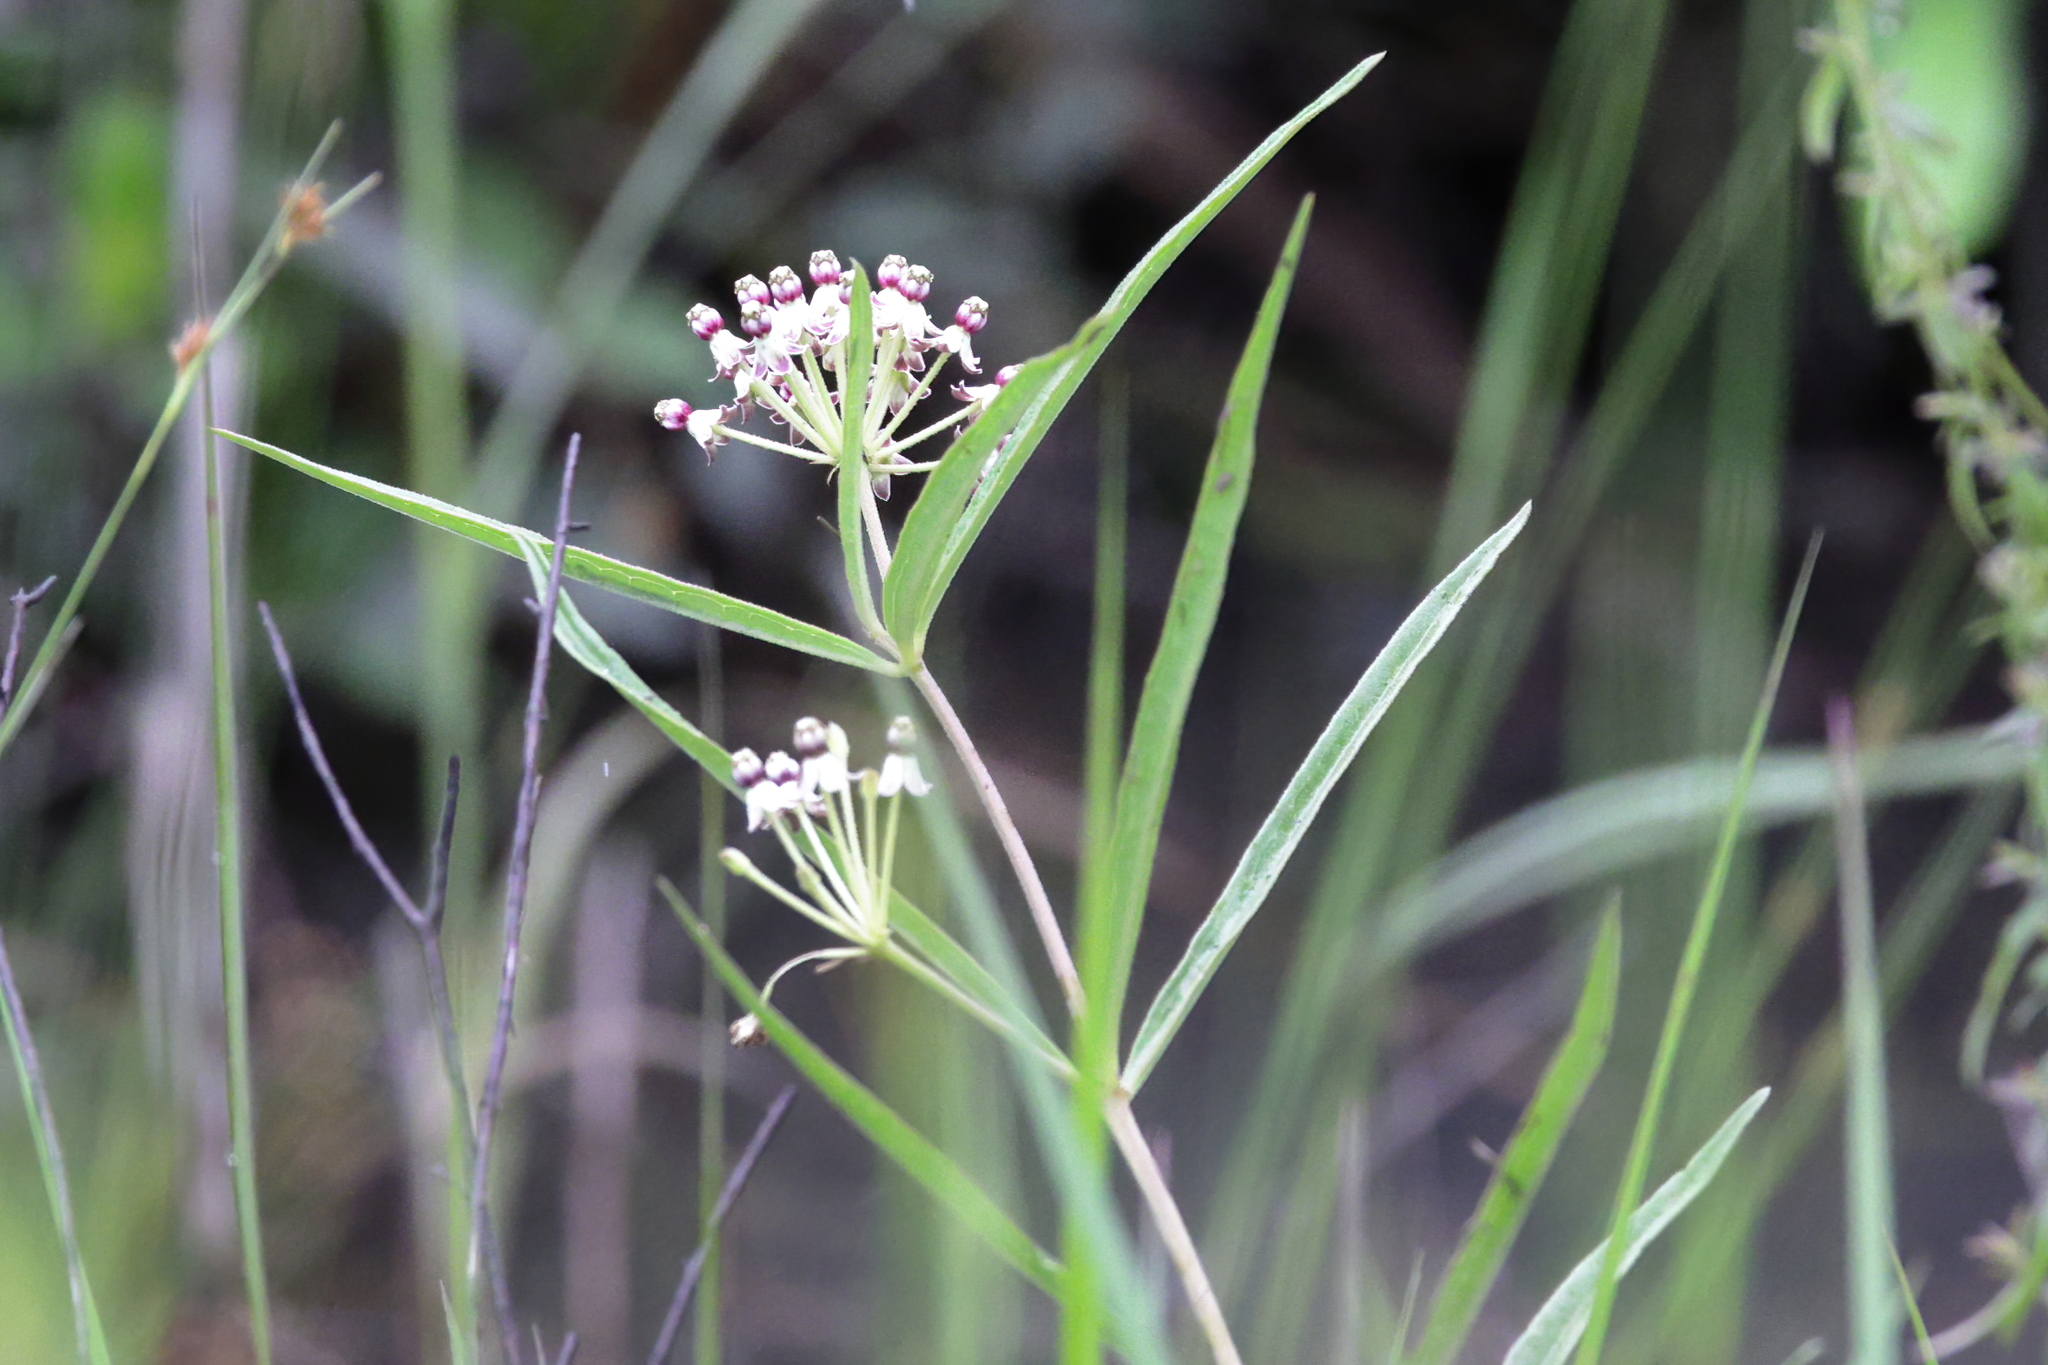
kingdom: Plantae
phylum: Tracheophyta
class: Magnoliopsida
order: Gentianales
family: Apocynaceae
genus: Asclepias
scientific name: Asclepias longifolia
